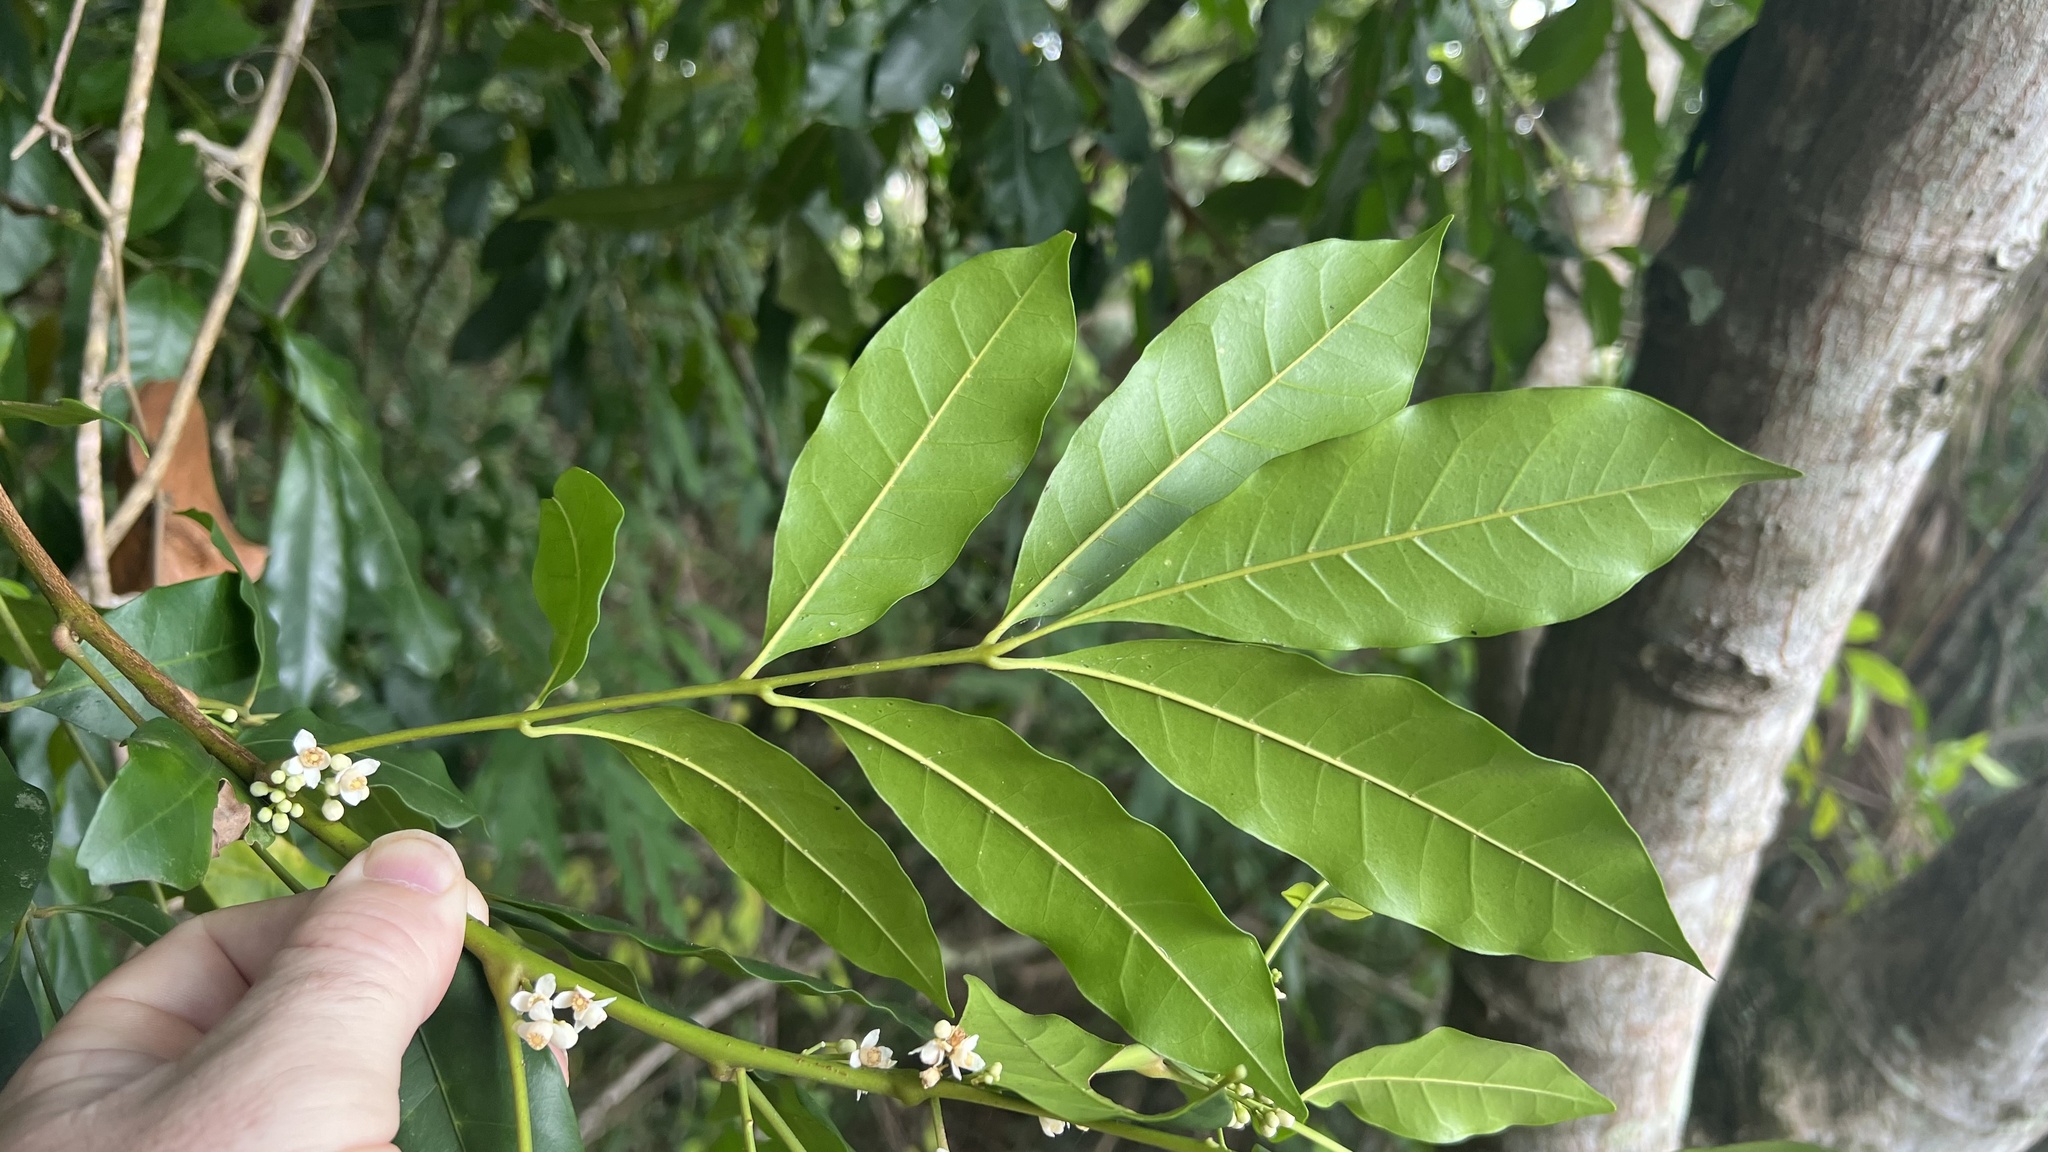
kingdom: Plantae
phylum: Tracheophyta
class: Magnoliopsida
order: Sapindales
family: Meliaceae
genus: Synoum
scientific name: Synoum glandulosum
